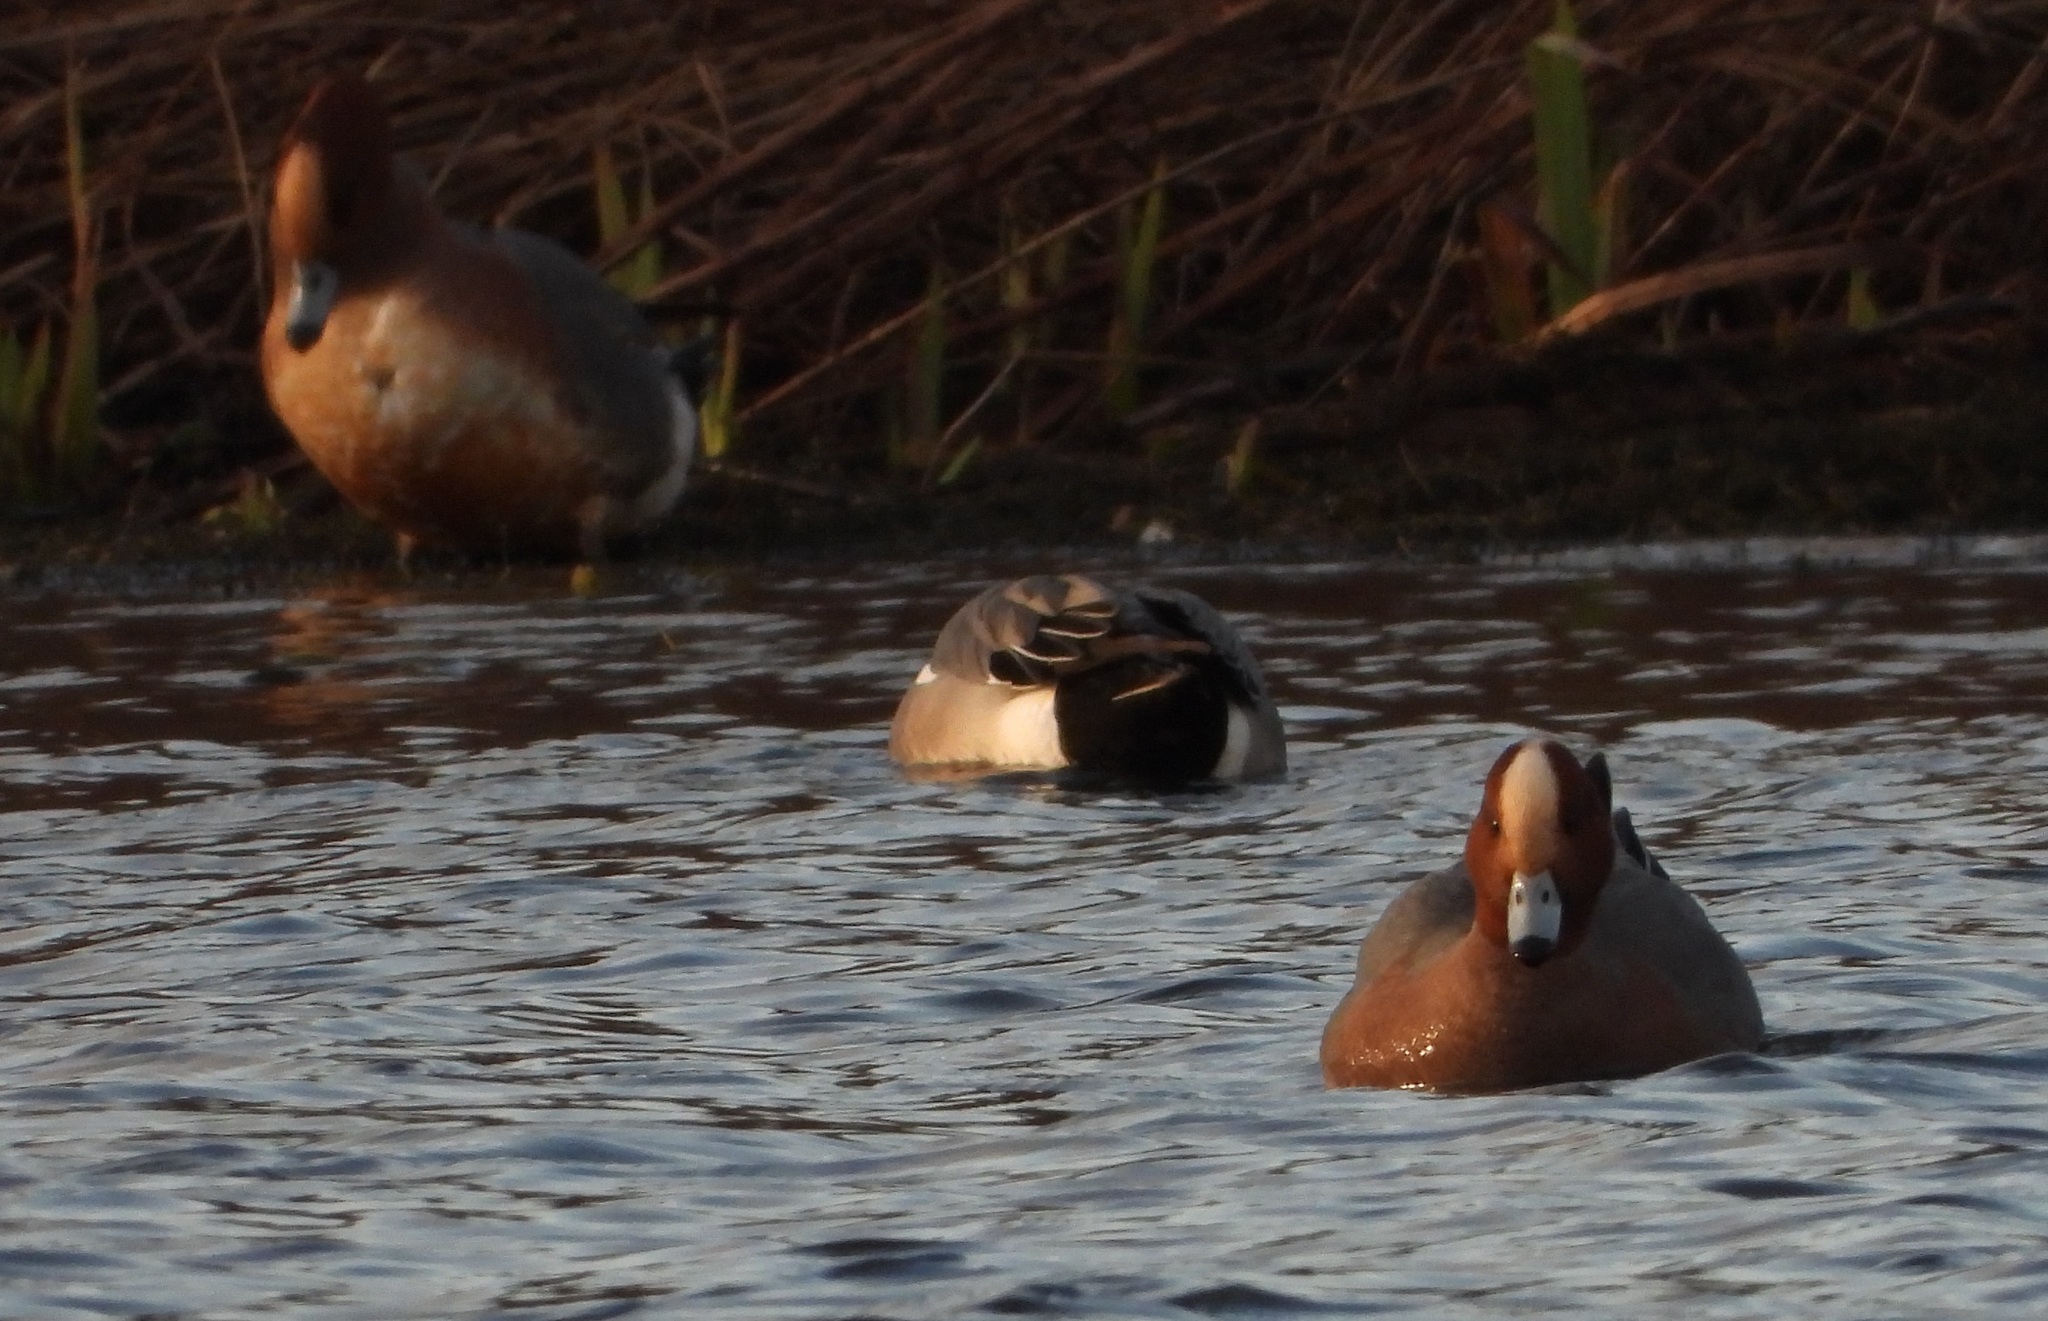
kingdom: Animalia
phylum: Chordata
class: Aves
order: Anseriformes
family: Anatidae
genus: Mareca
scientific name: Mareca penelope
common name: Eurasian wigeon
